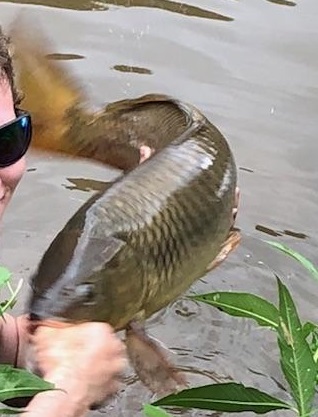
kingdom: Animalia
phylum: Chordata
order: Cypriniformes
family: Cyprinidae
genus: Cyprinus
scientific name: Cyprinus carpio
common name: Common carp
